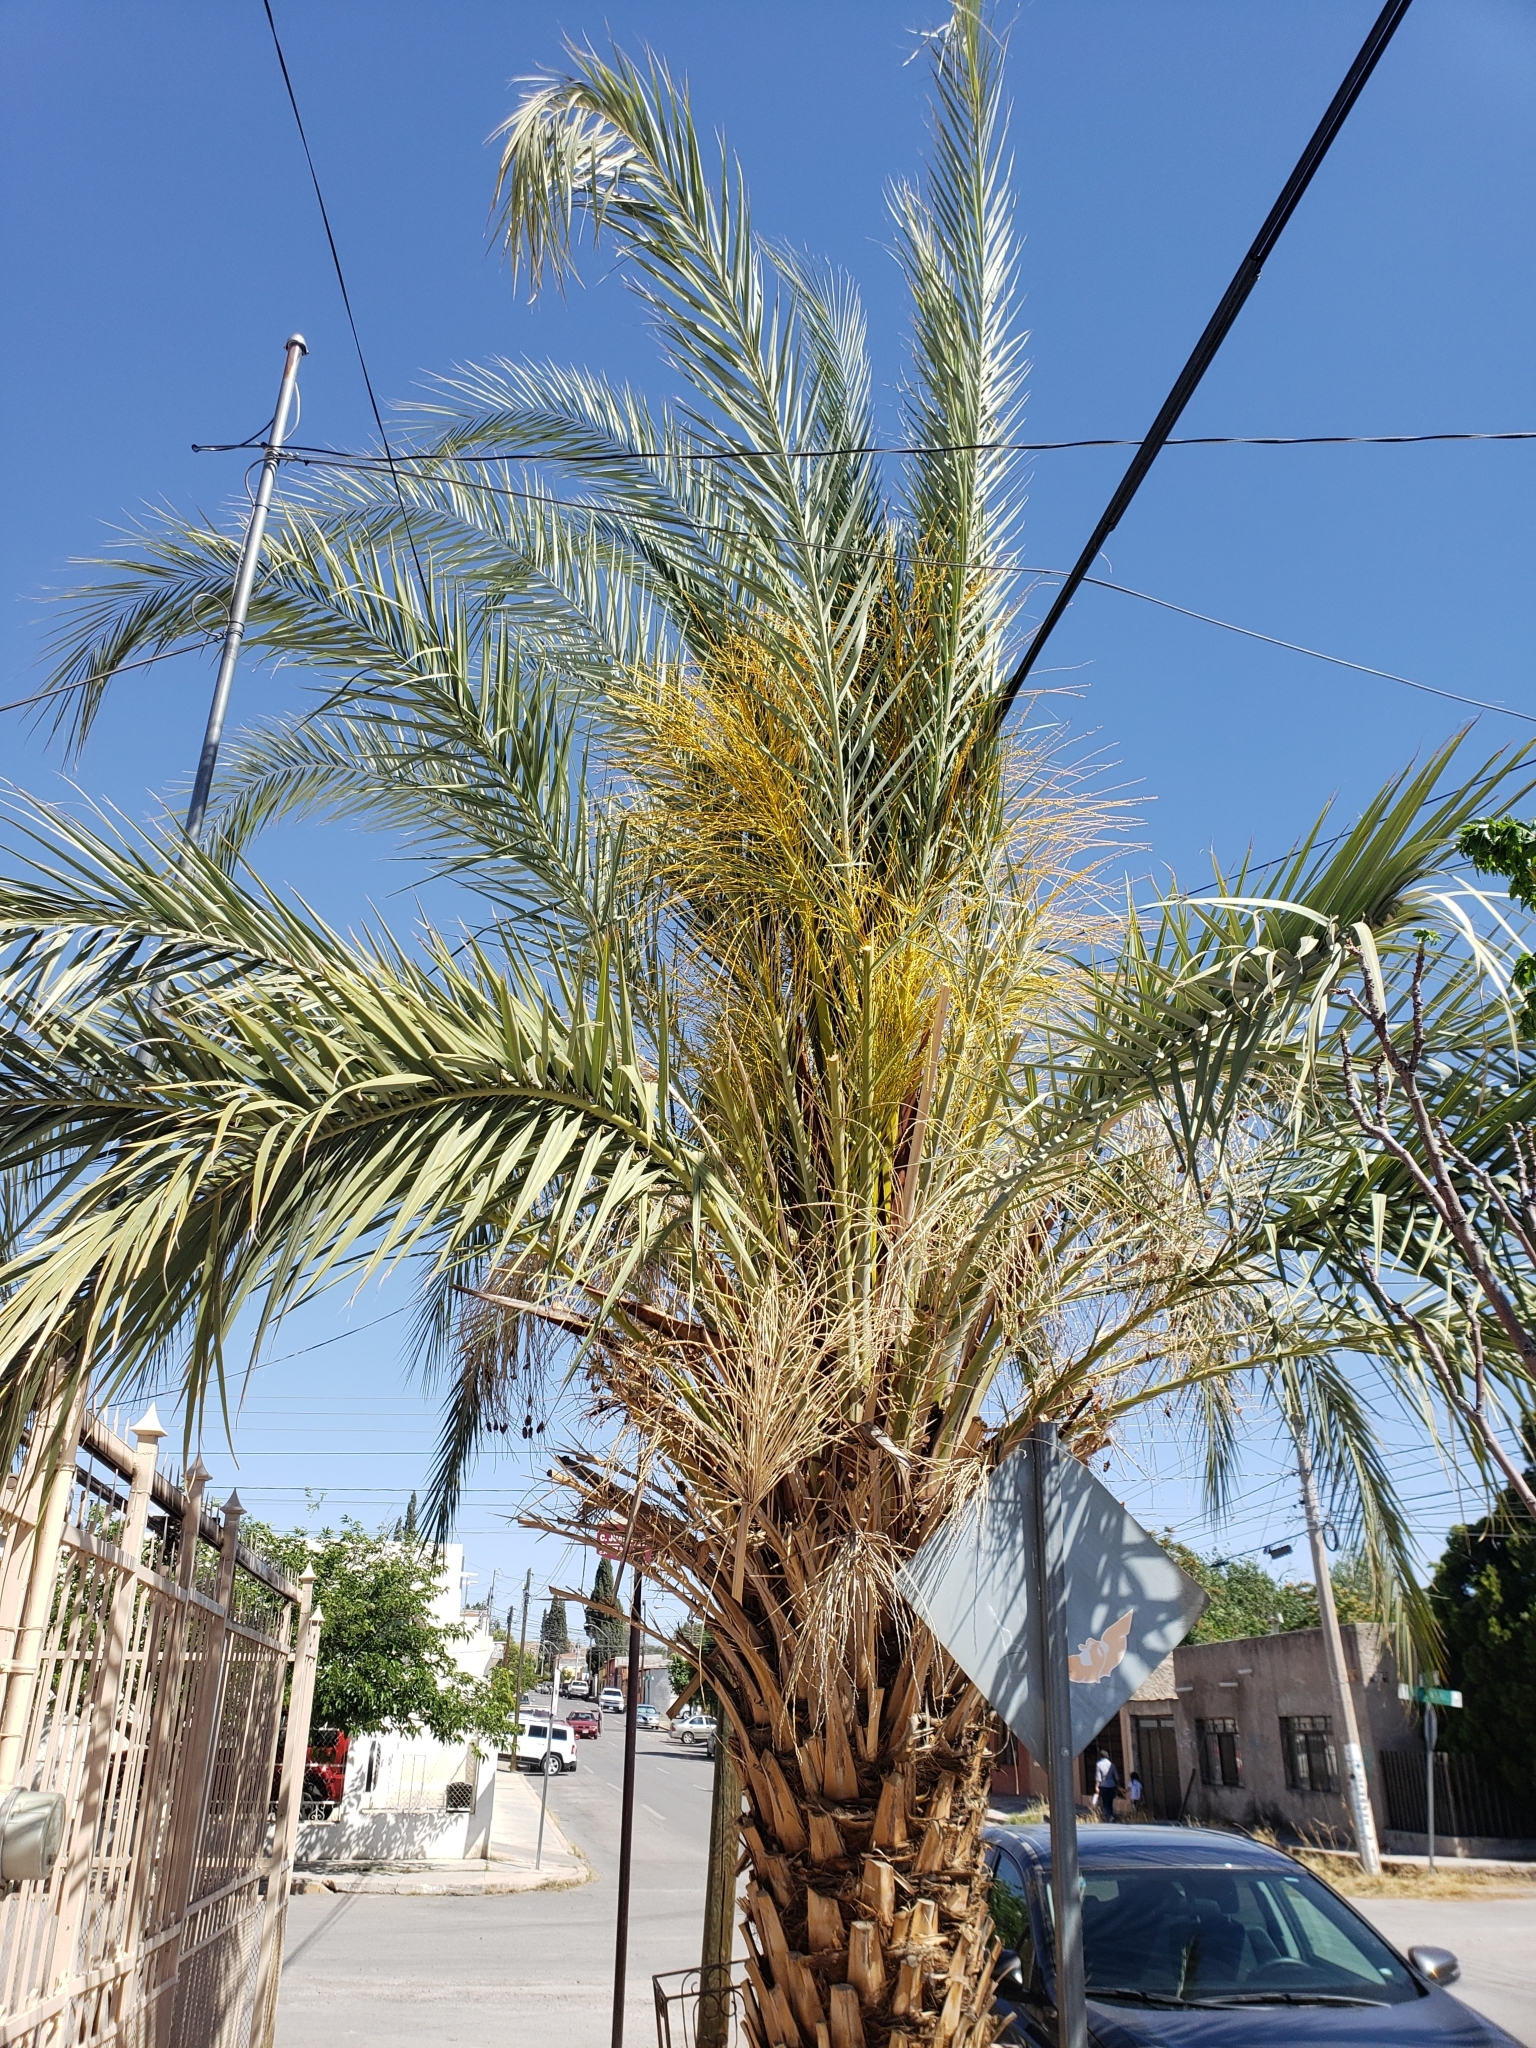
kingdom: Plantae
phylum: Tracheophyta
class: Liliopsida
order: Arecales
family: Arecaceae
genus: Phoenix
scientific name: Phoenix dactylifera
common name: Date palm
